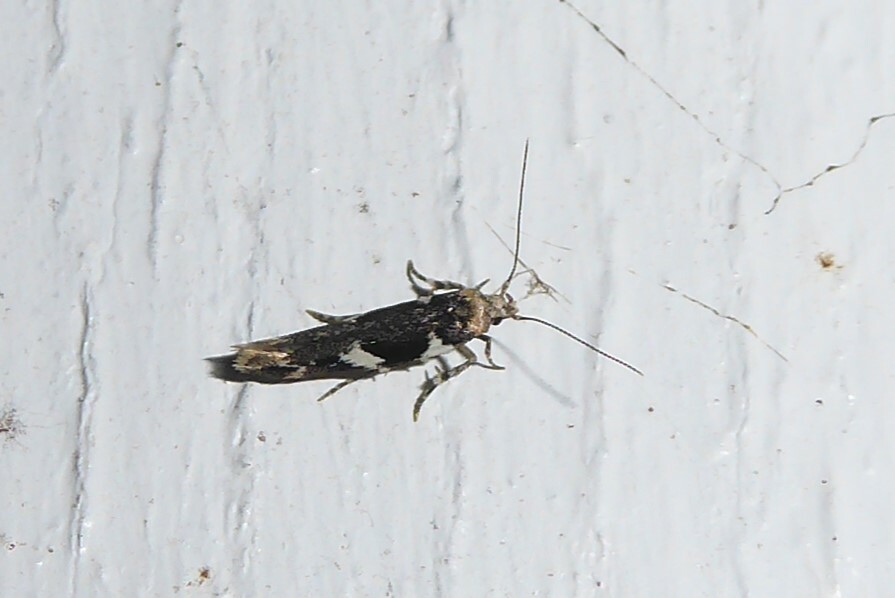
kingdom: Animalia
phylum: Arthropoda
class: Insecta
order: Lepidoptera
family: Cosmopterigidae
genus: Pyroderces
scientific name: Pyroderces deamatella
